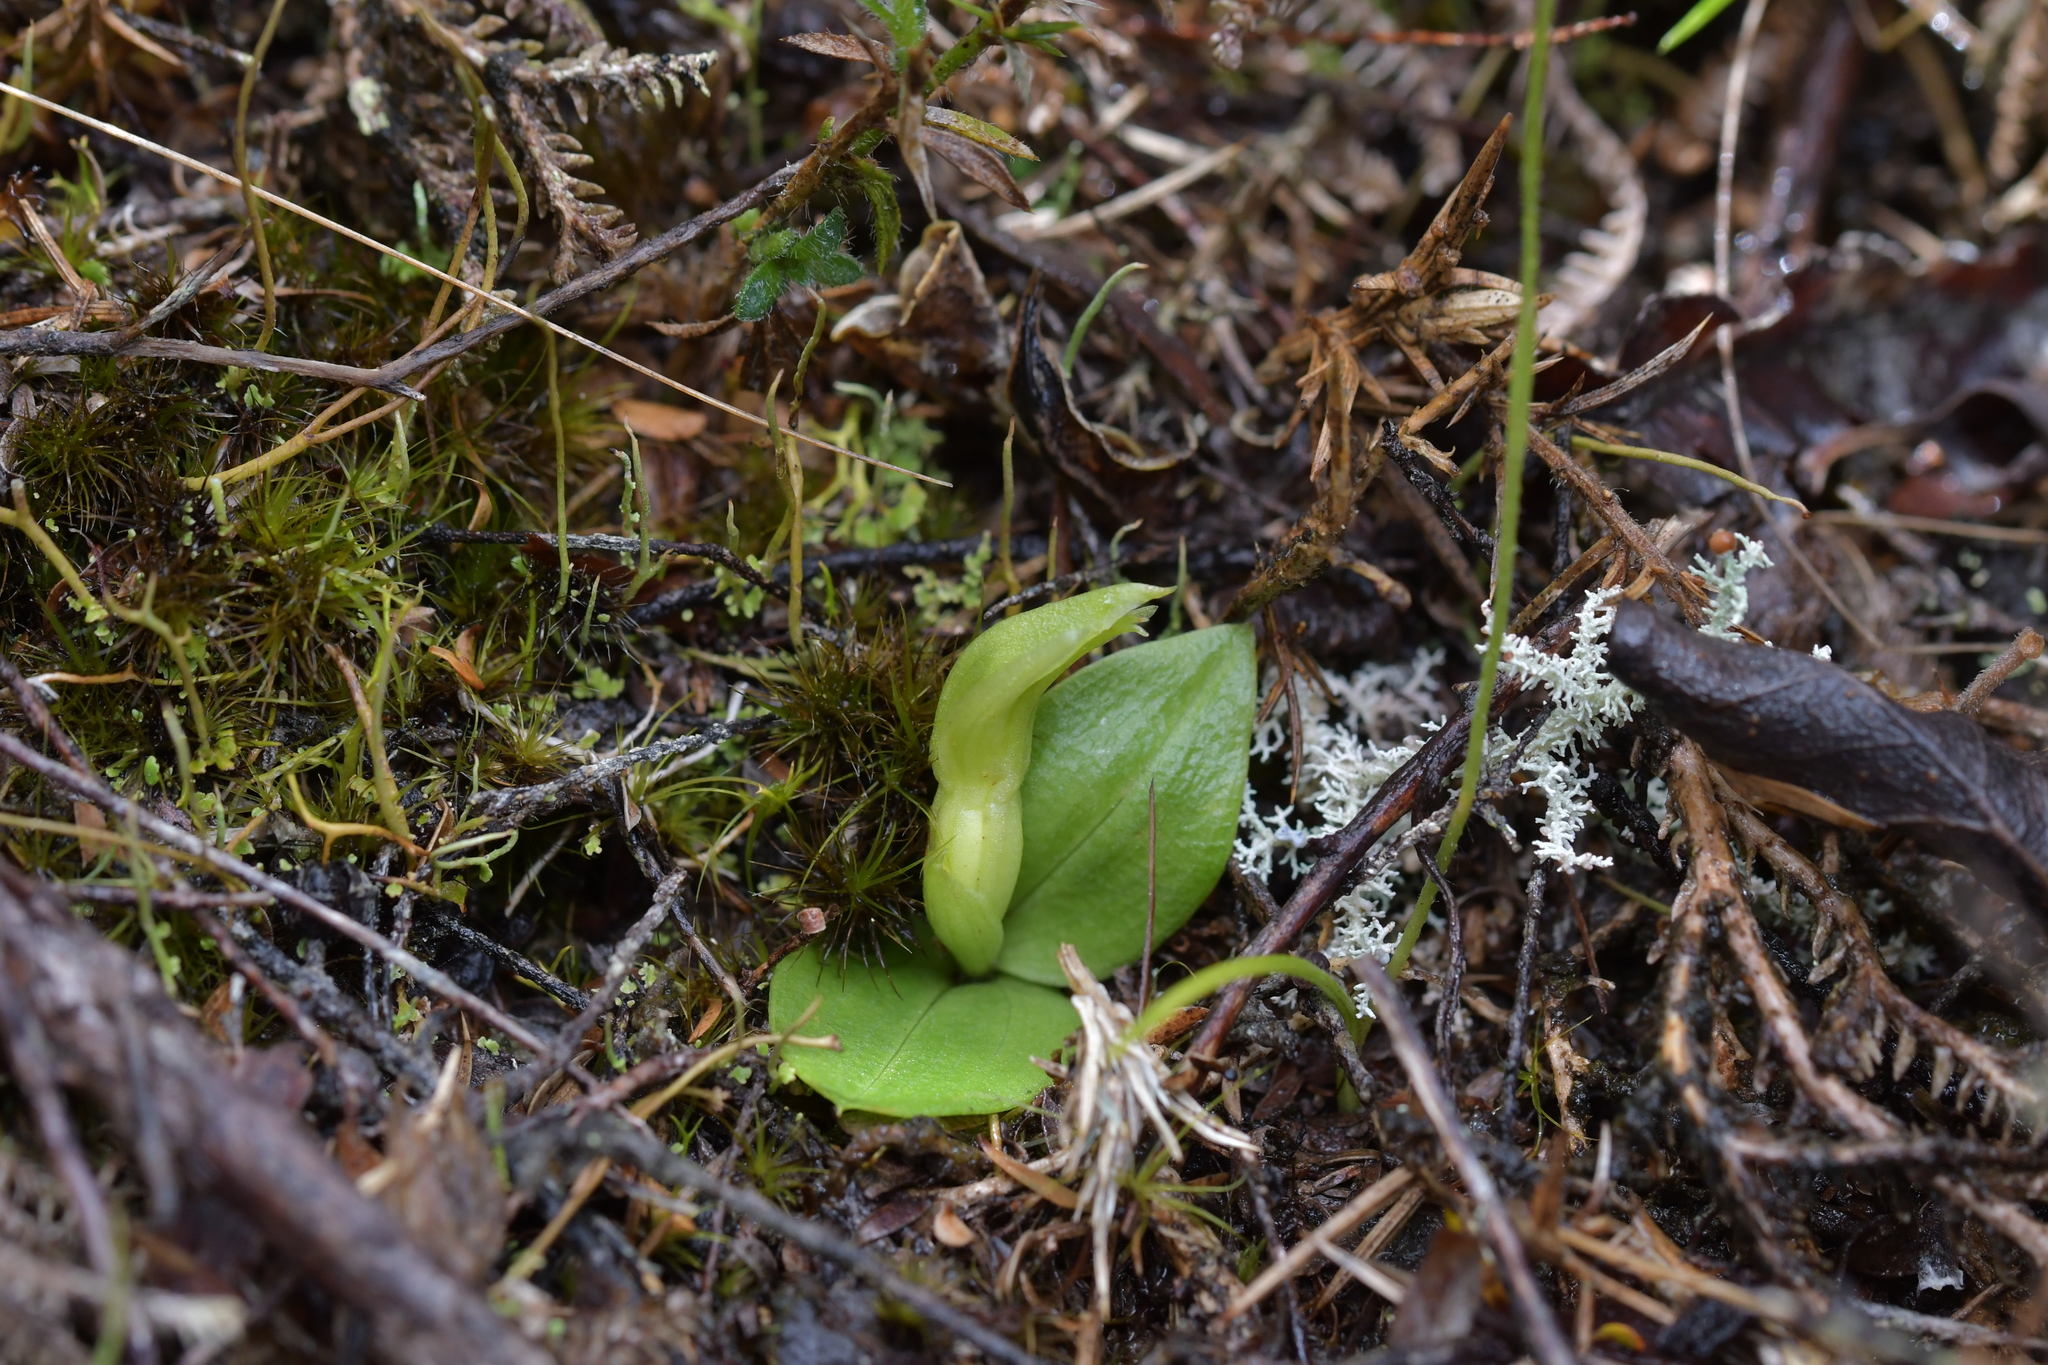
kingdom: Plantae
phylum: Tracheophyta
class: Liliopsida
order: Asparagales
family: Orchidaceae
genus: Chiloglottis
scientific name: Chiloglottis cornuta
